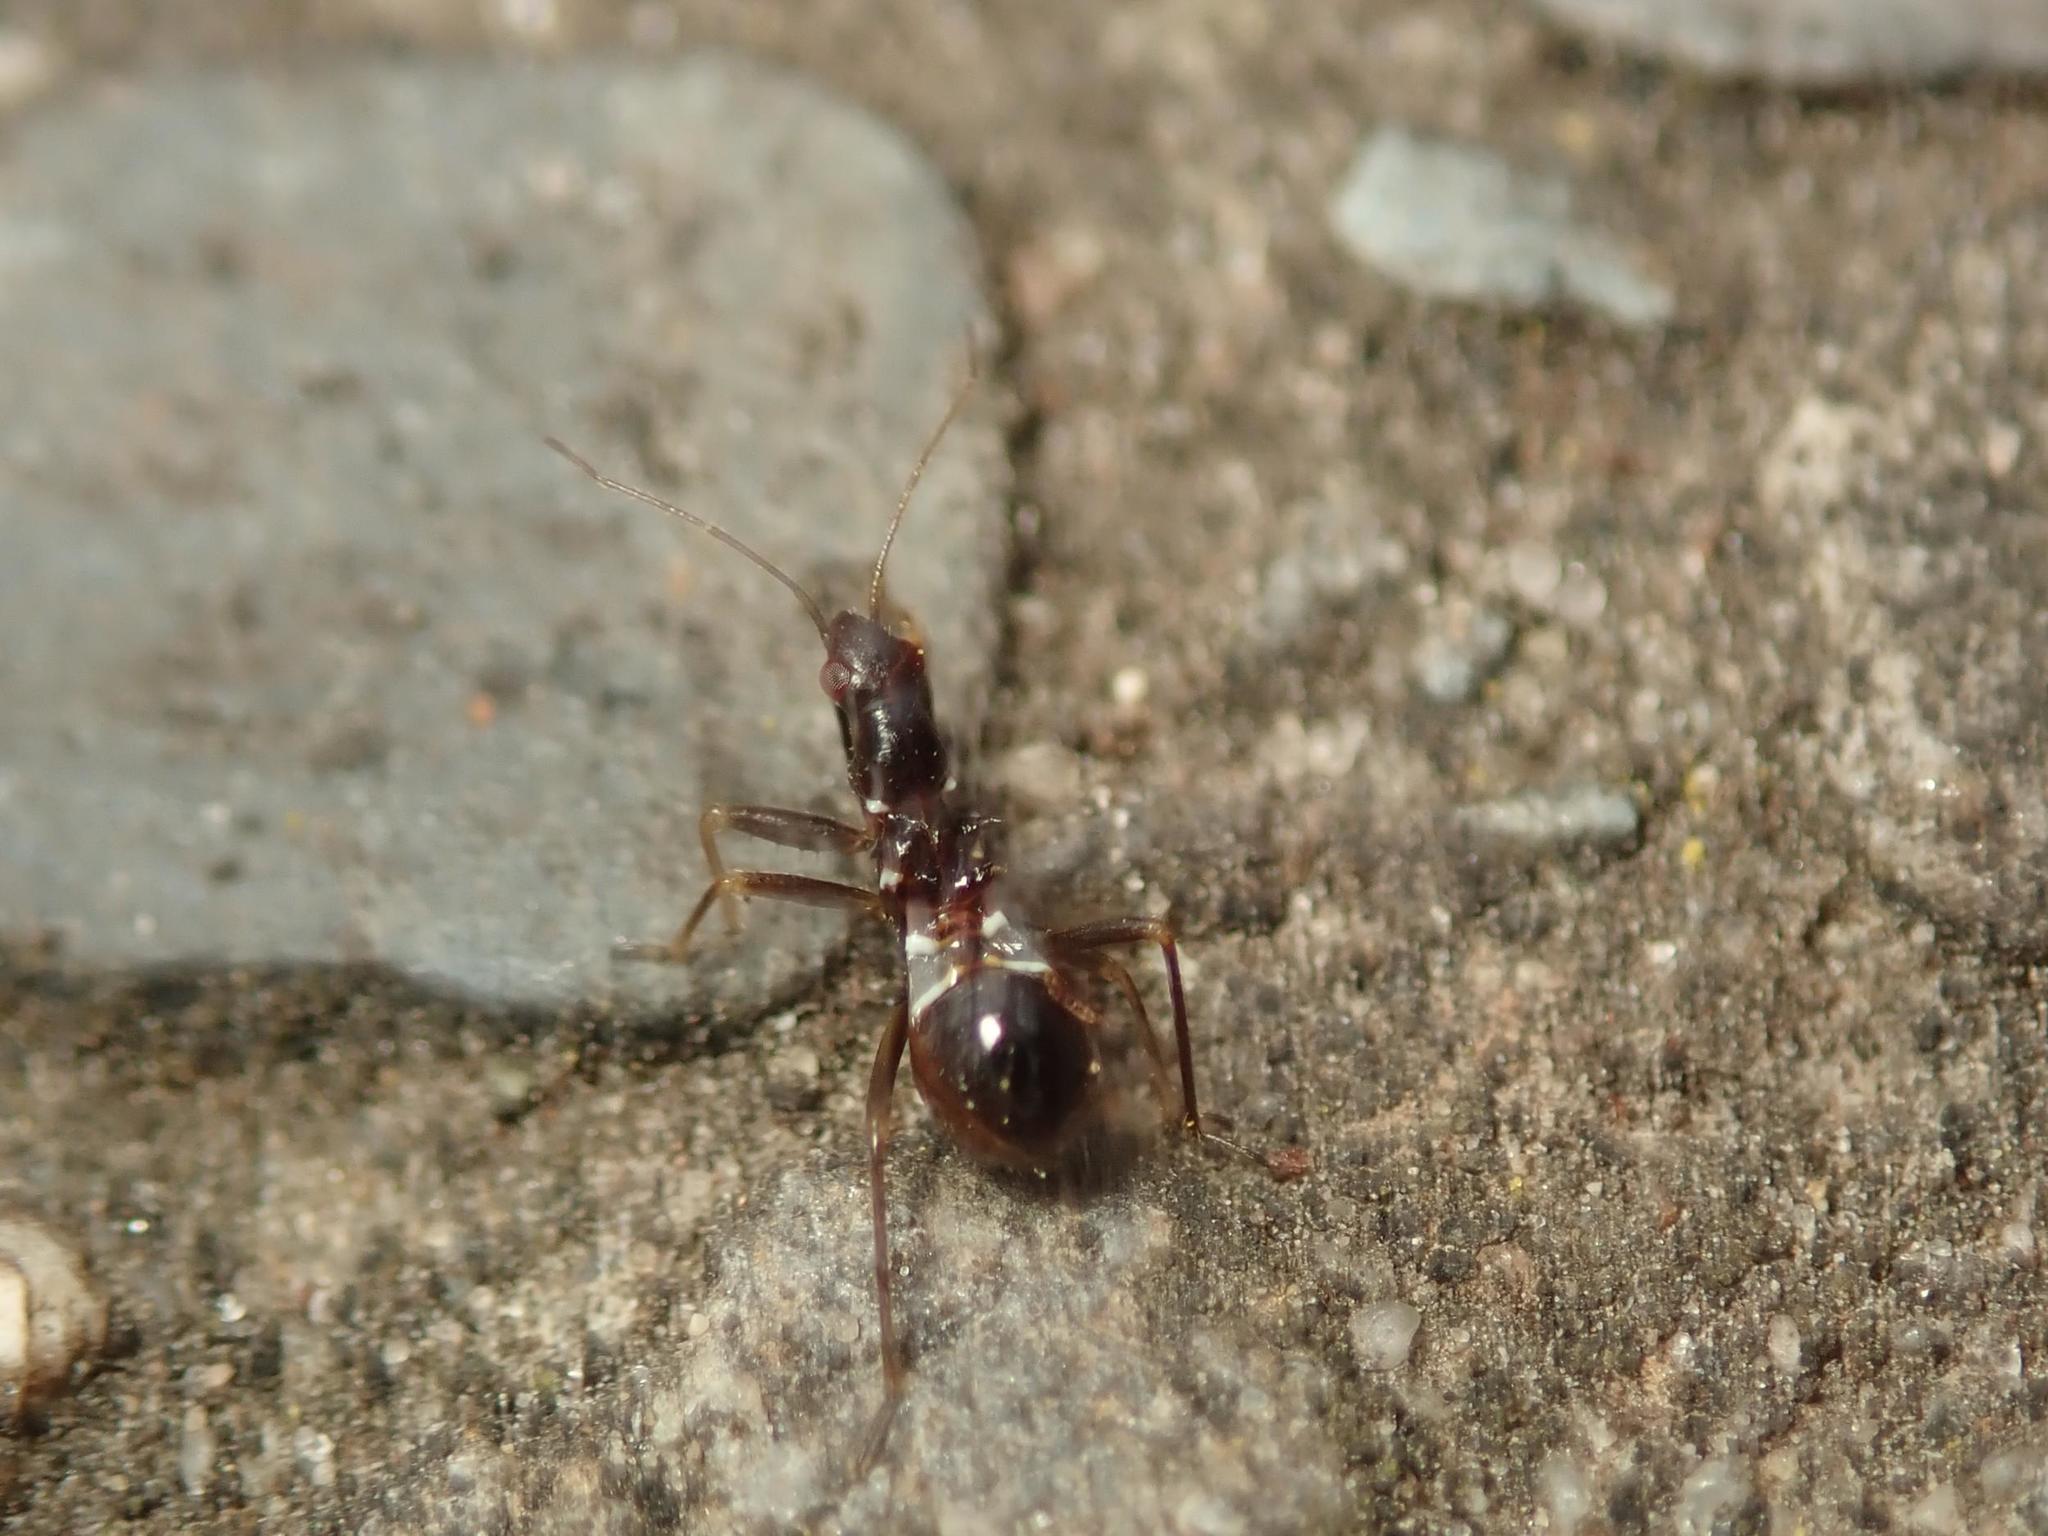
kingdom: Animalia
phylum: Arthropoda
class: Insecta
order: Hemiptera
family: Nabidae
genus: Himacerus
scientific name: Himacerus mirmicoides
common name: Ant damsel bug
